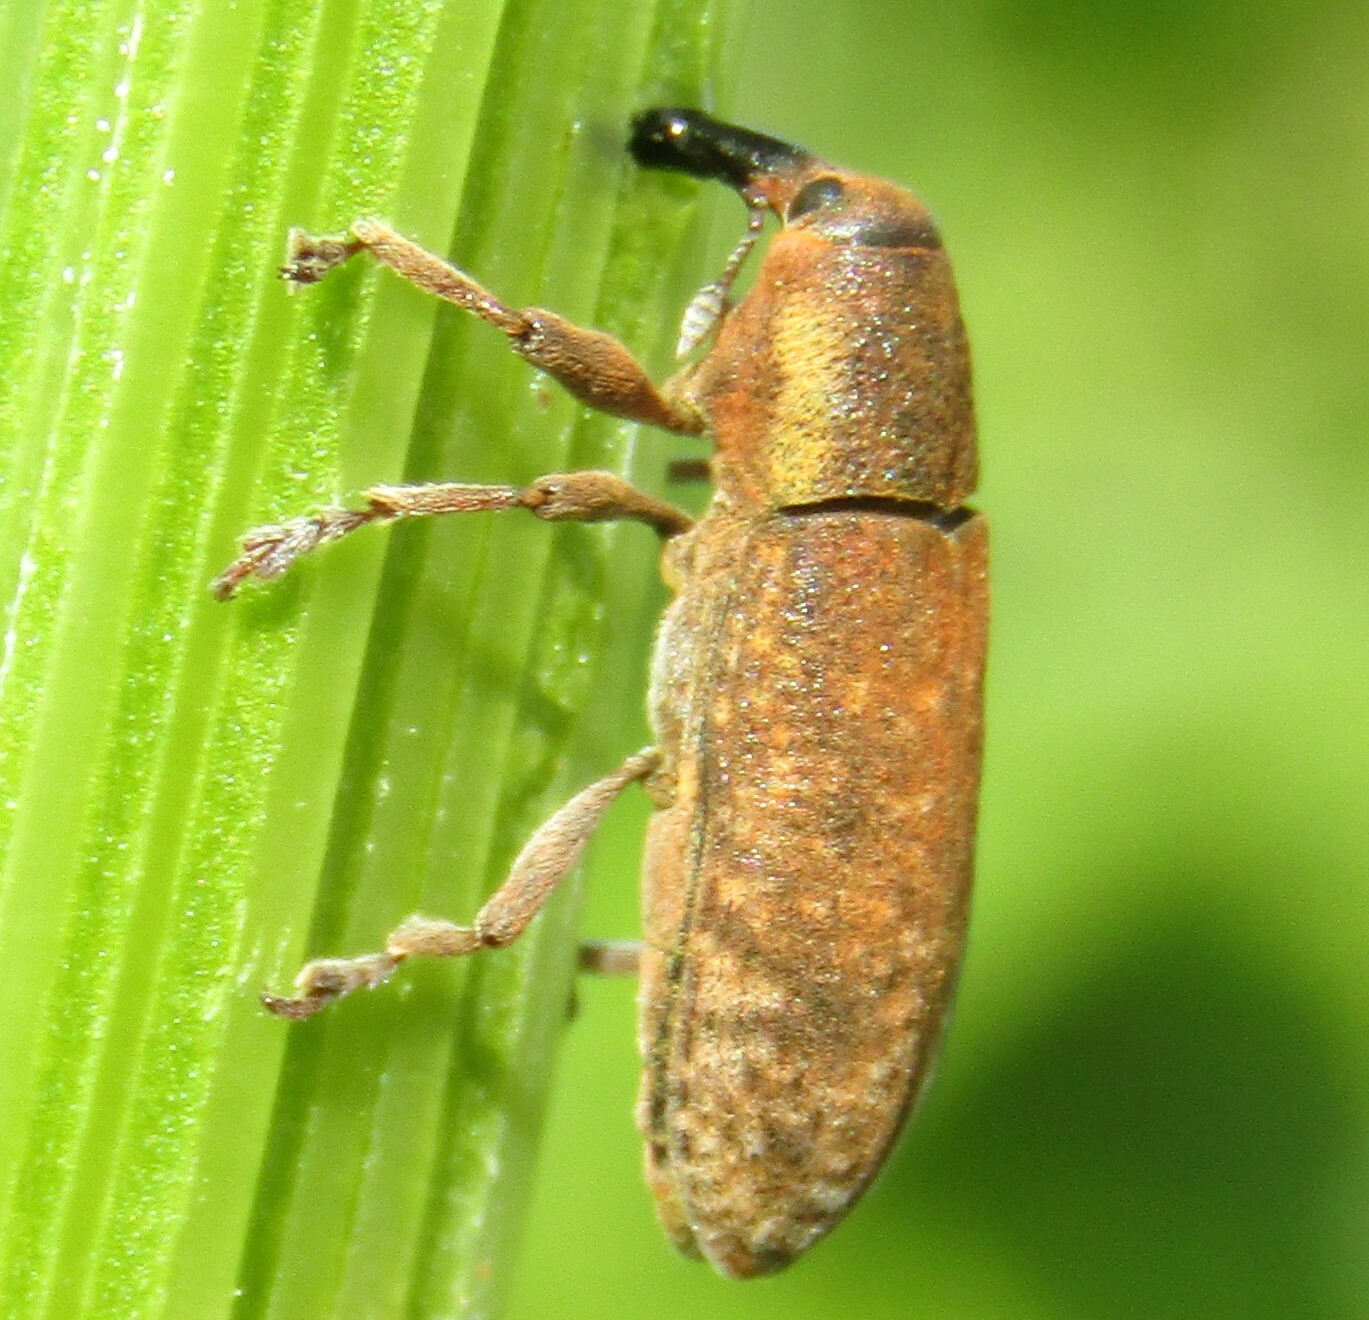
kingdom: Animalia
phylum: Arthropoda
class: Insecta
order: Coleoptera
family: Curculionidae
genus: Lixus
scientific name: Lixus bardanae
